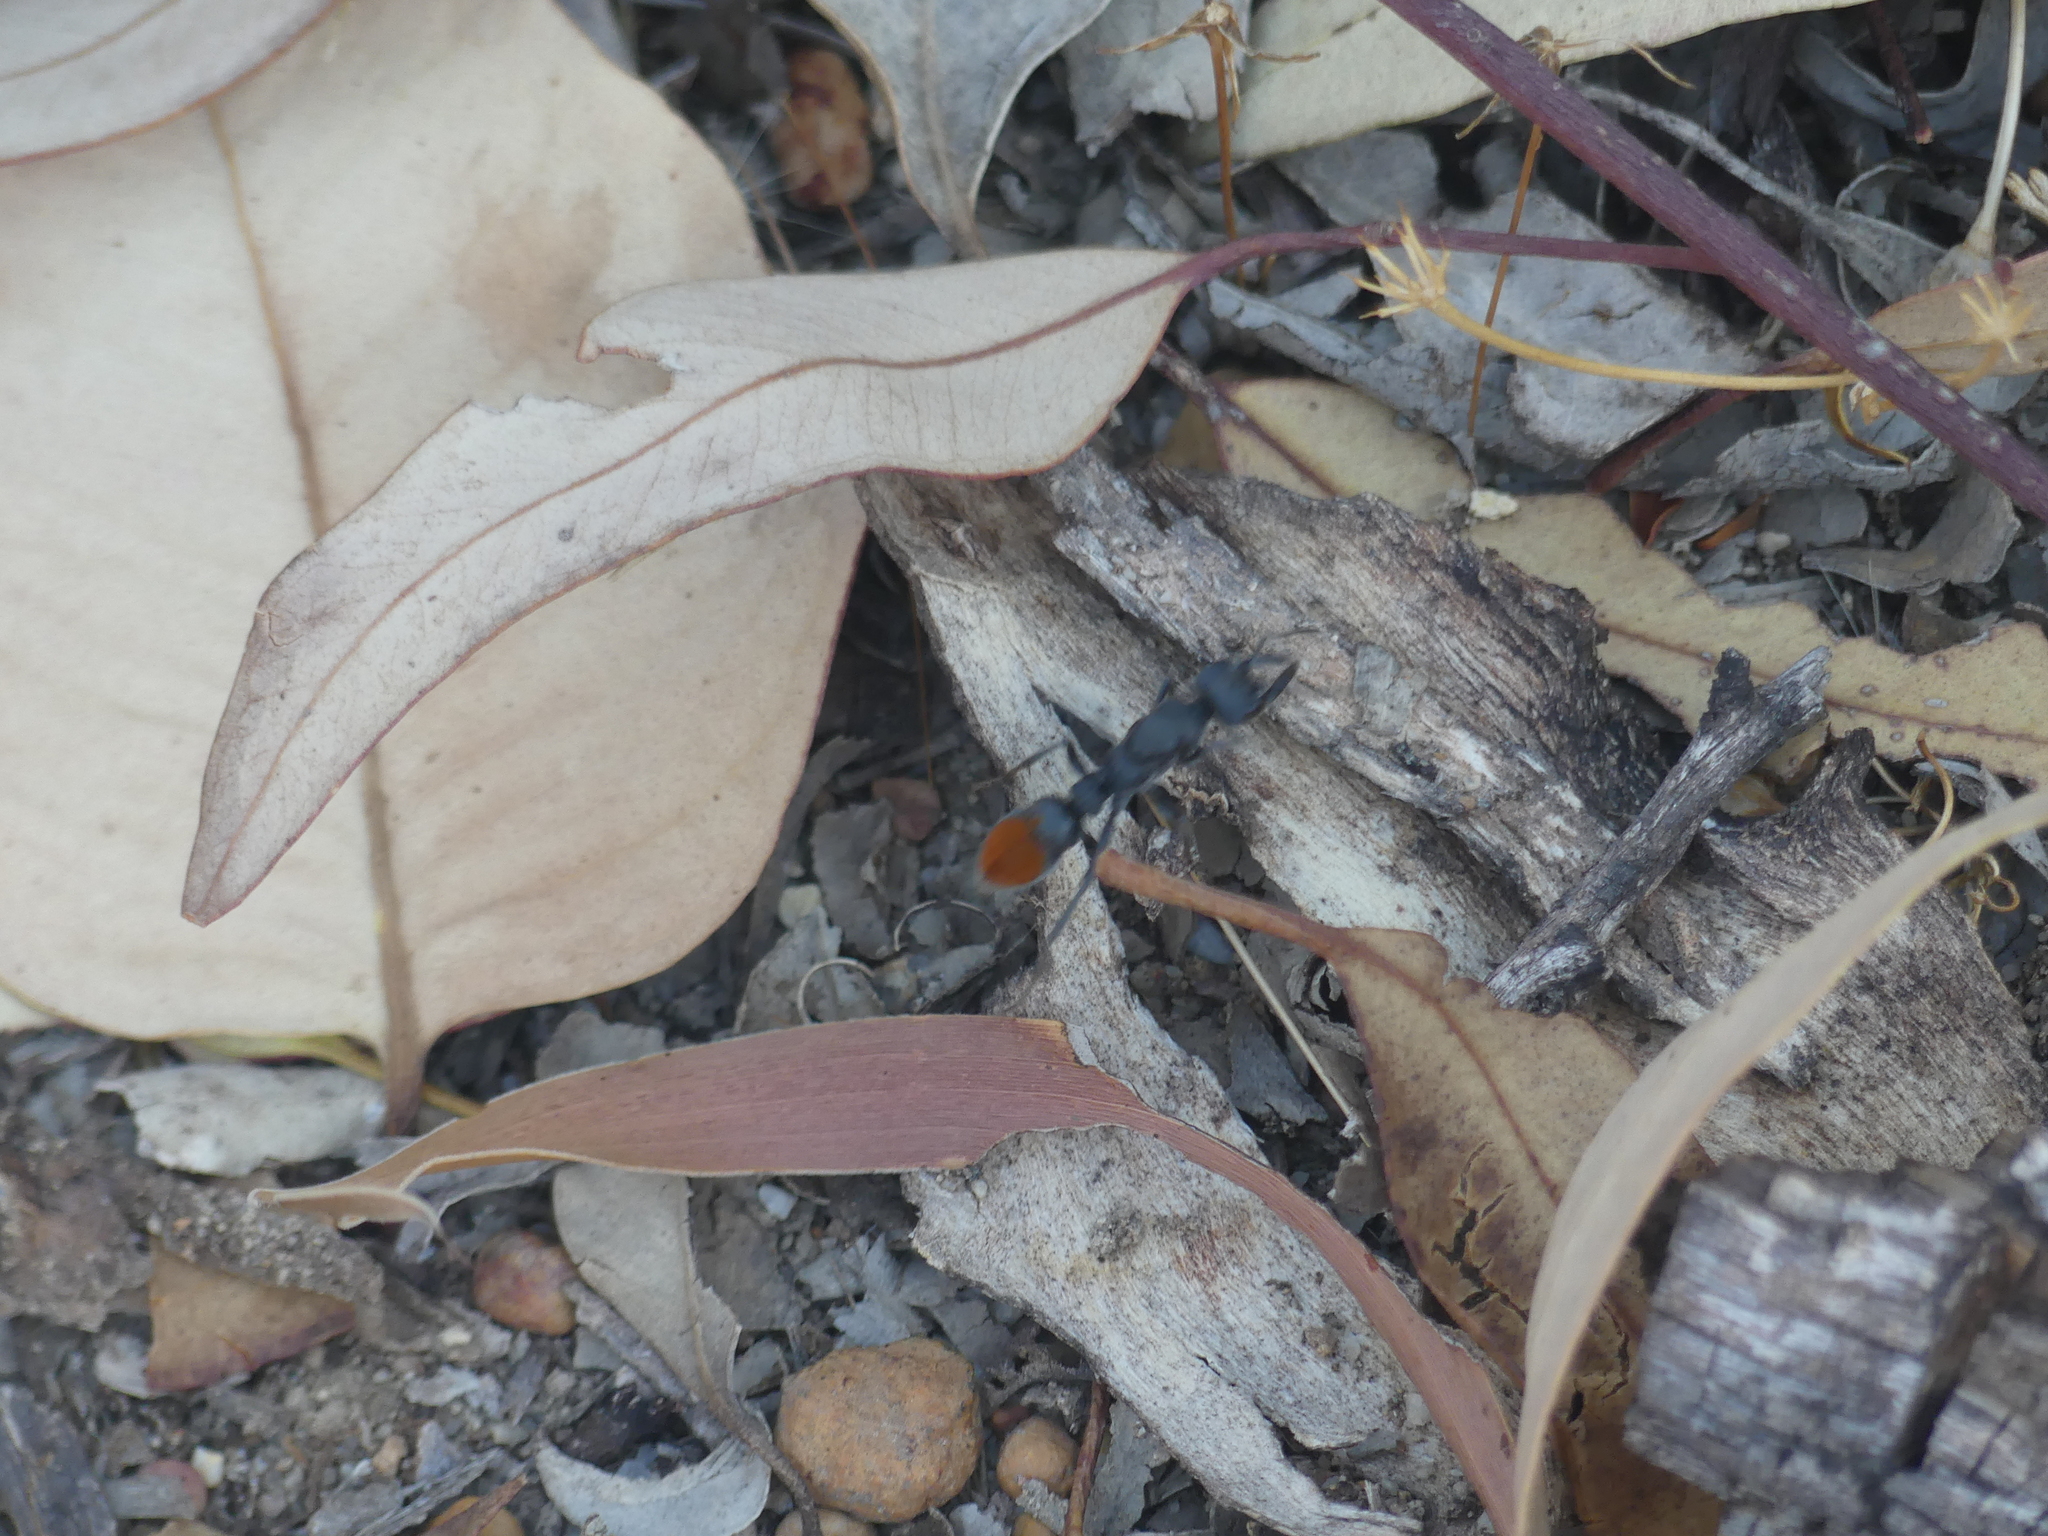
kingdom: Animalia
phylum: Arthropoda
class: Insecta
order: Hymenoptera
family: Formicidae
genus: Myrmecia
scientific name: Myrmecia mandibularis
